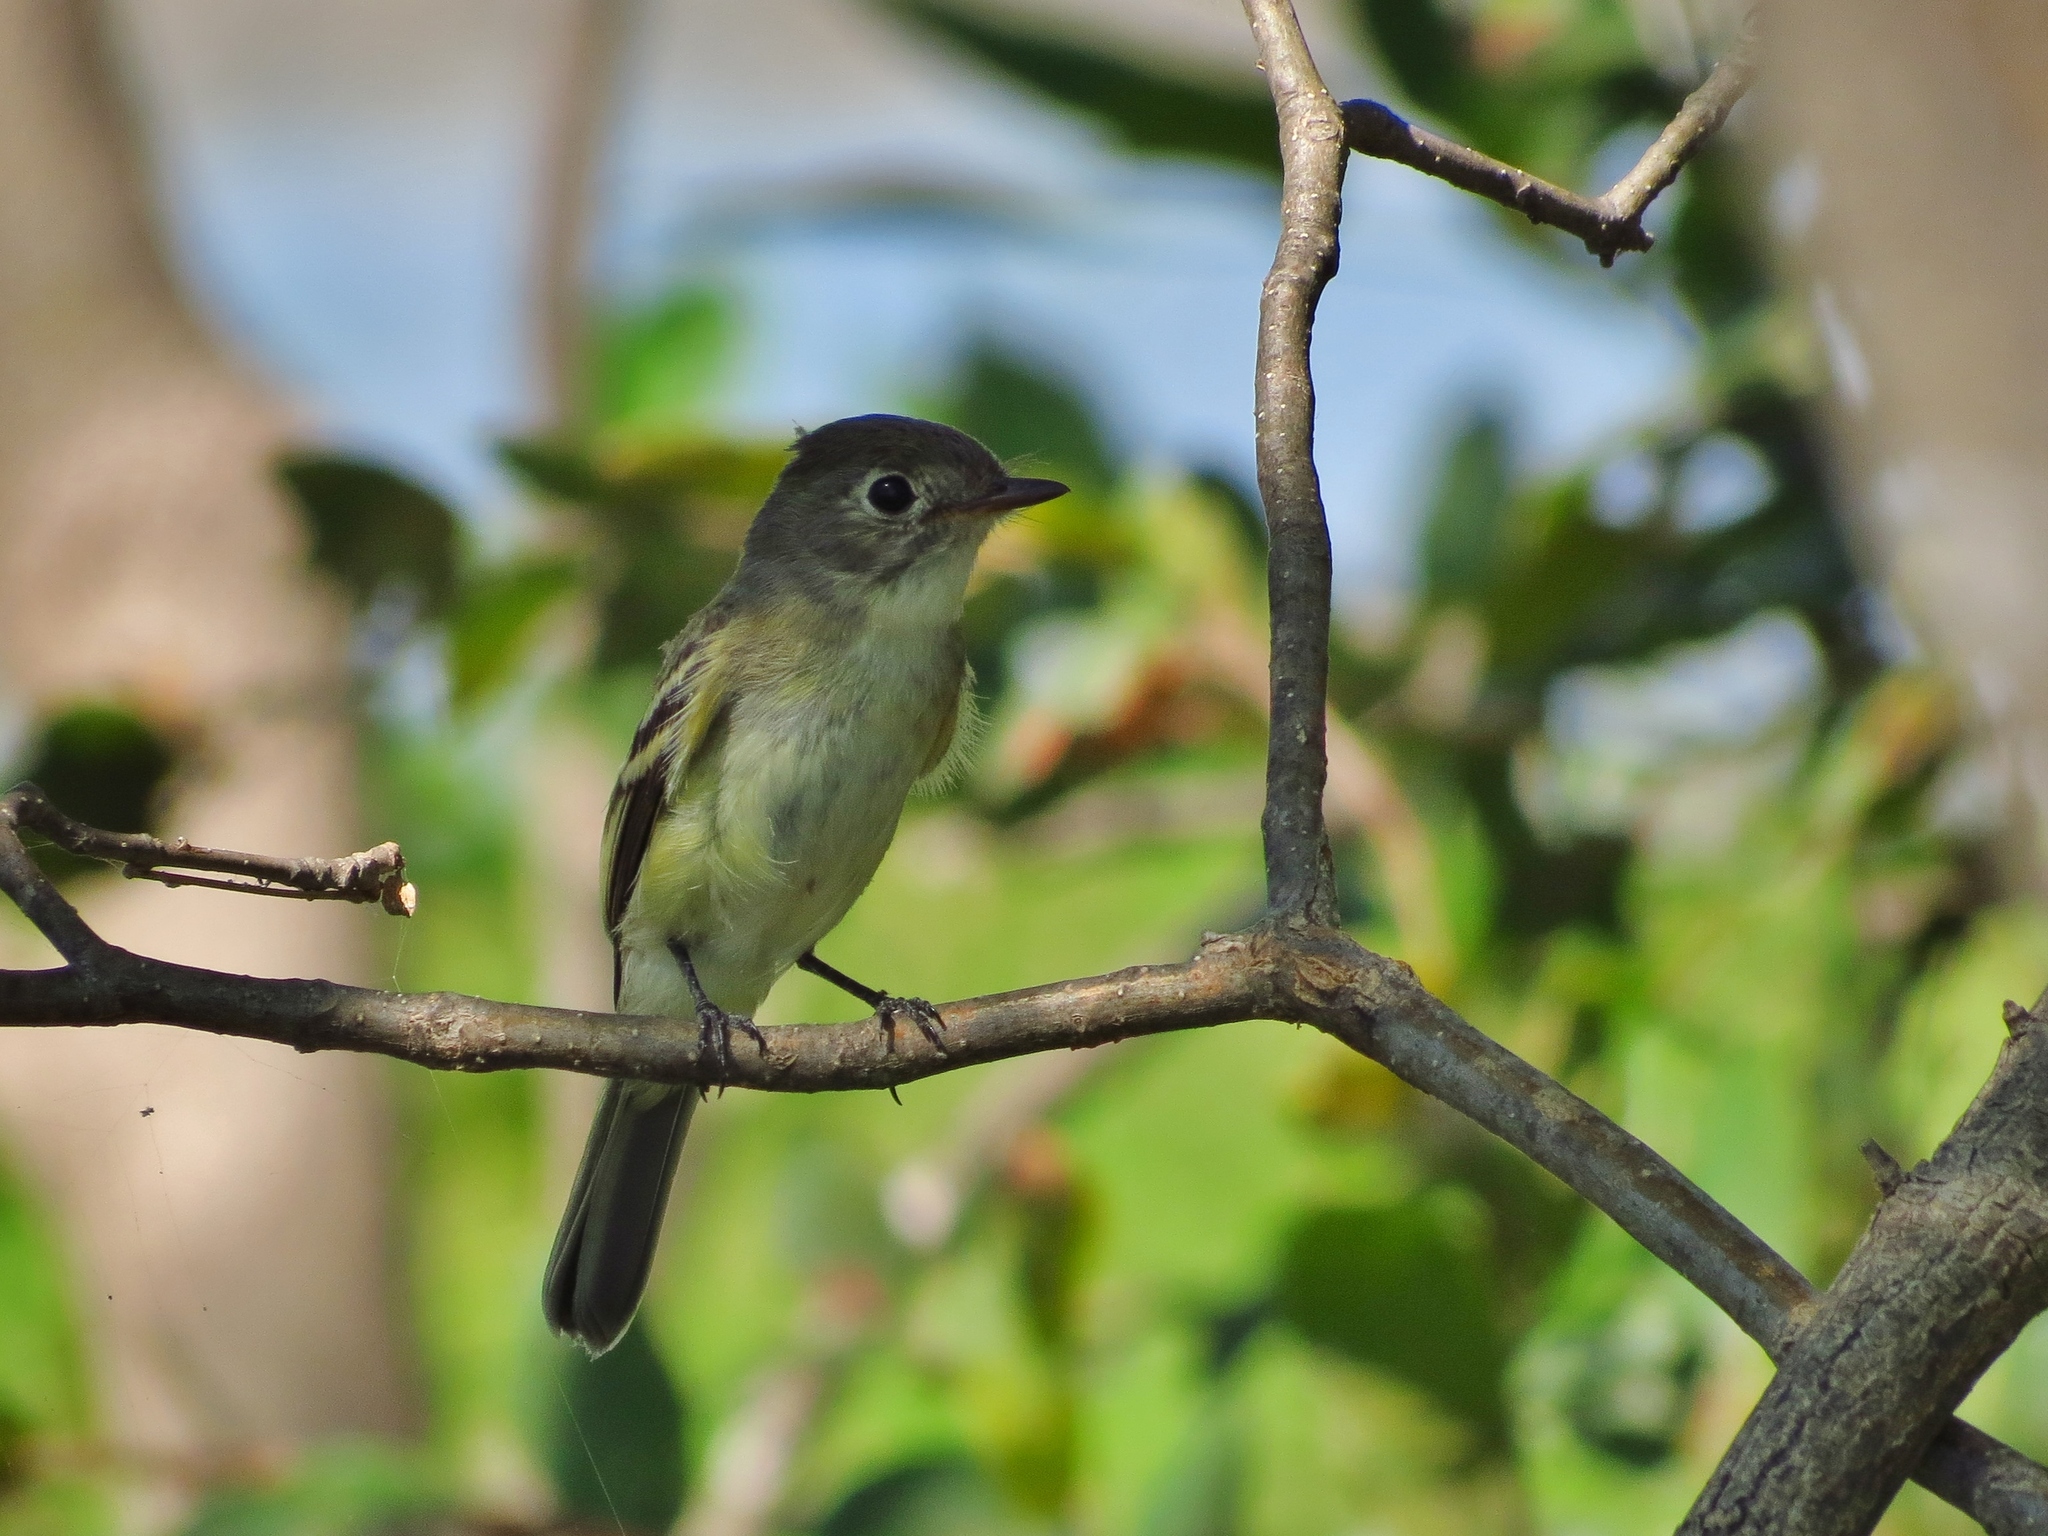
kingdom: Animalia
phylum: Chordata
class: Aves
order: Passeriformes
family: Tyrannidae
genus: Empidonax
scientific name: Empidonax minimus
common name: Least flycatcher
